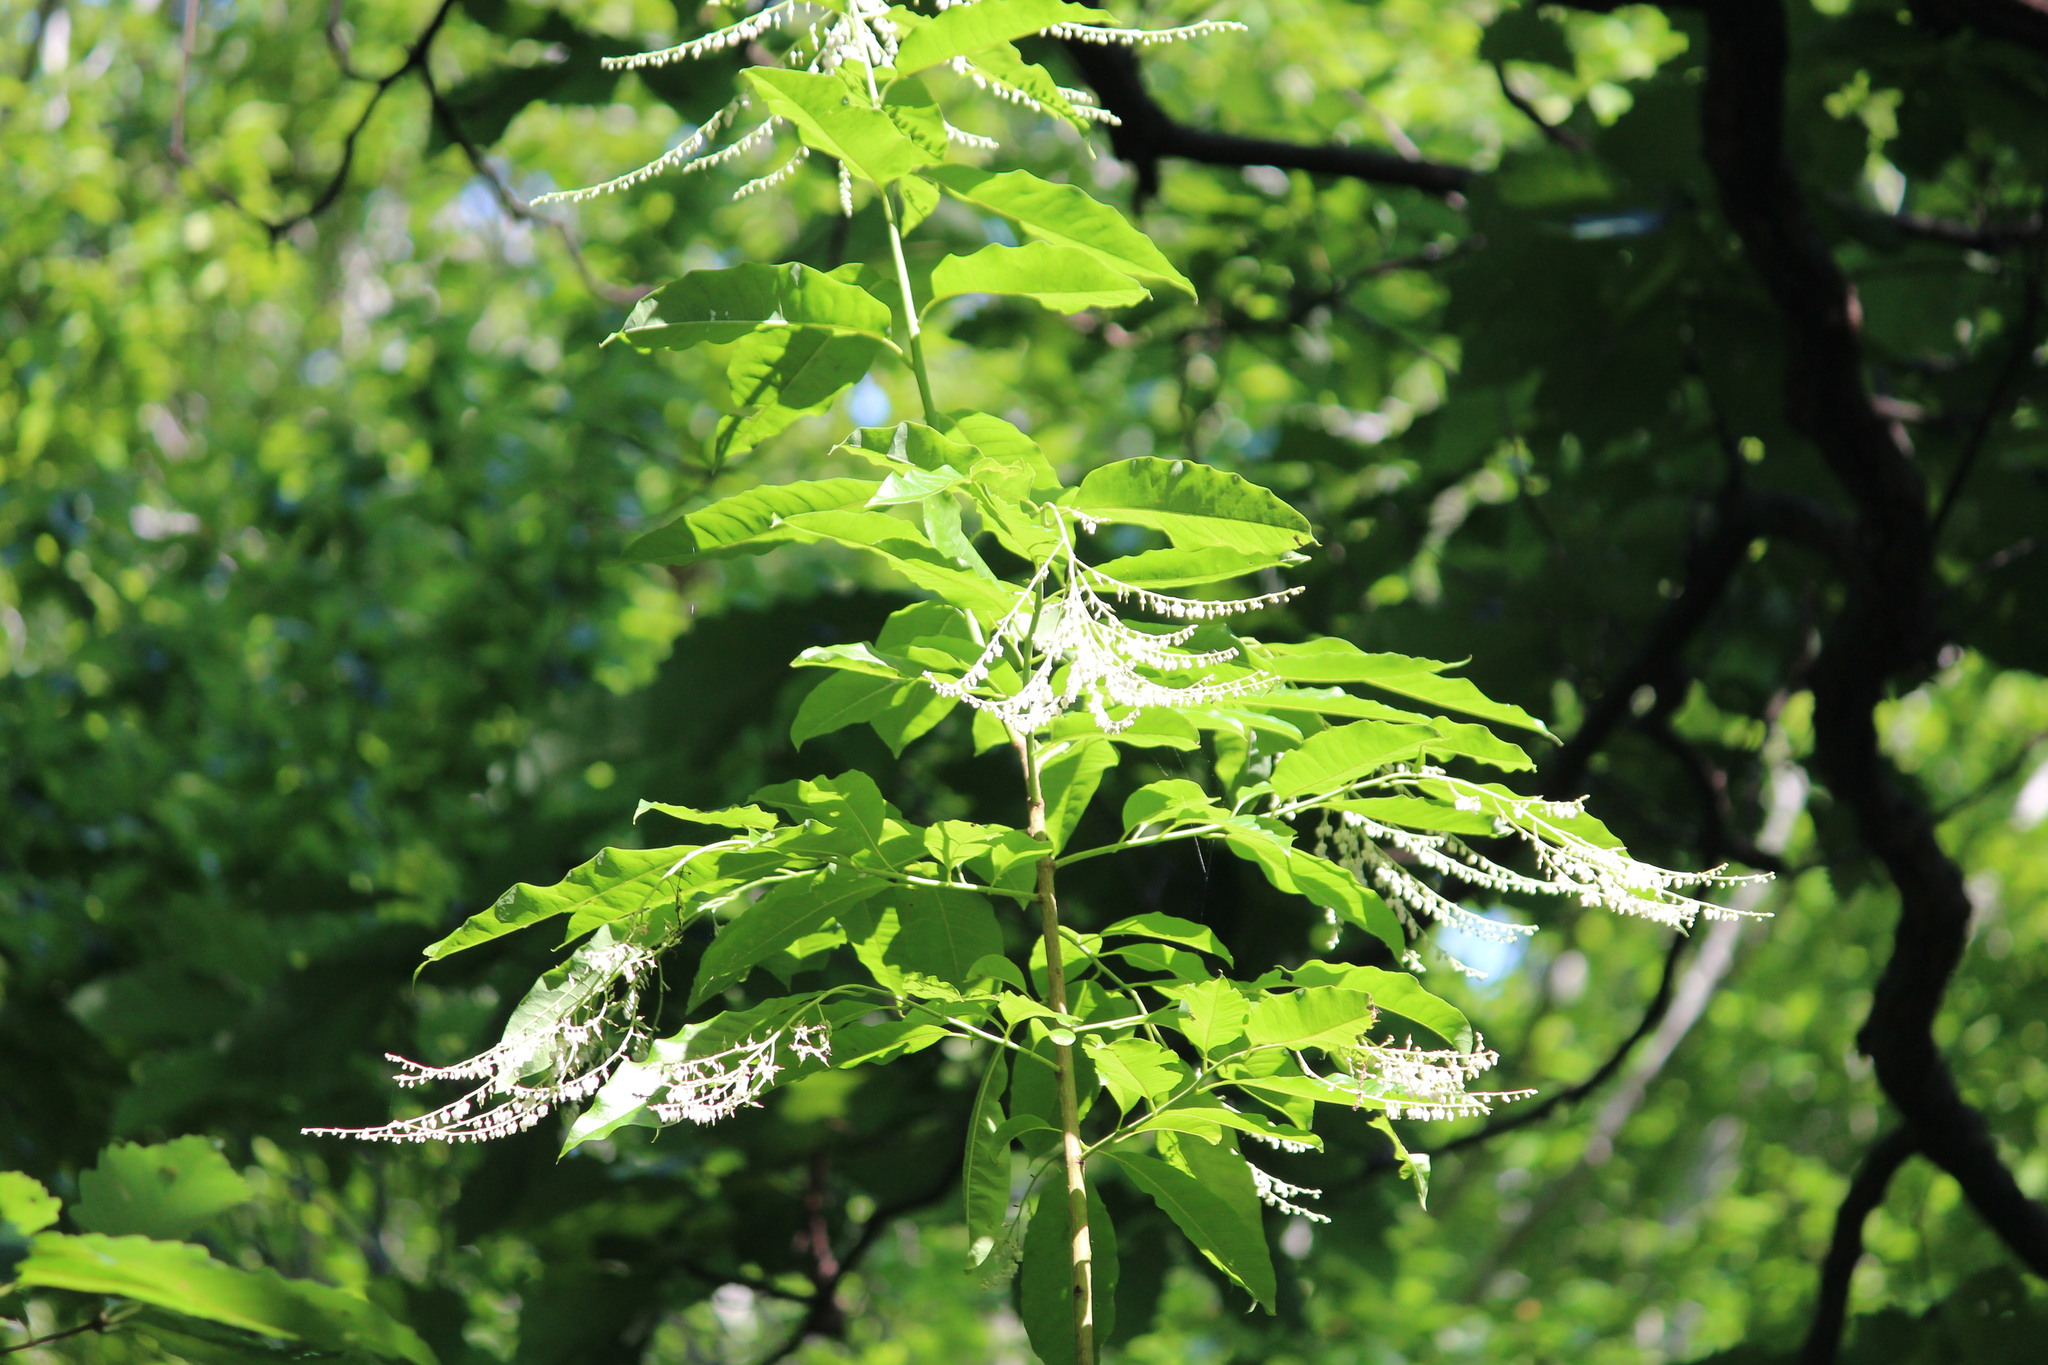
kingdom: Plantae
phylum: Tracheophyta
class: Magnoliopsida
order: Ericales
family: Ericaceae
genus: Oxydendrum
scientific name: Oxydendrum arboreum
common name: Sourwood
